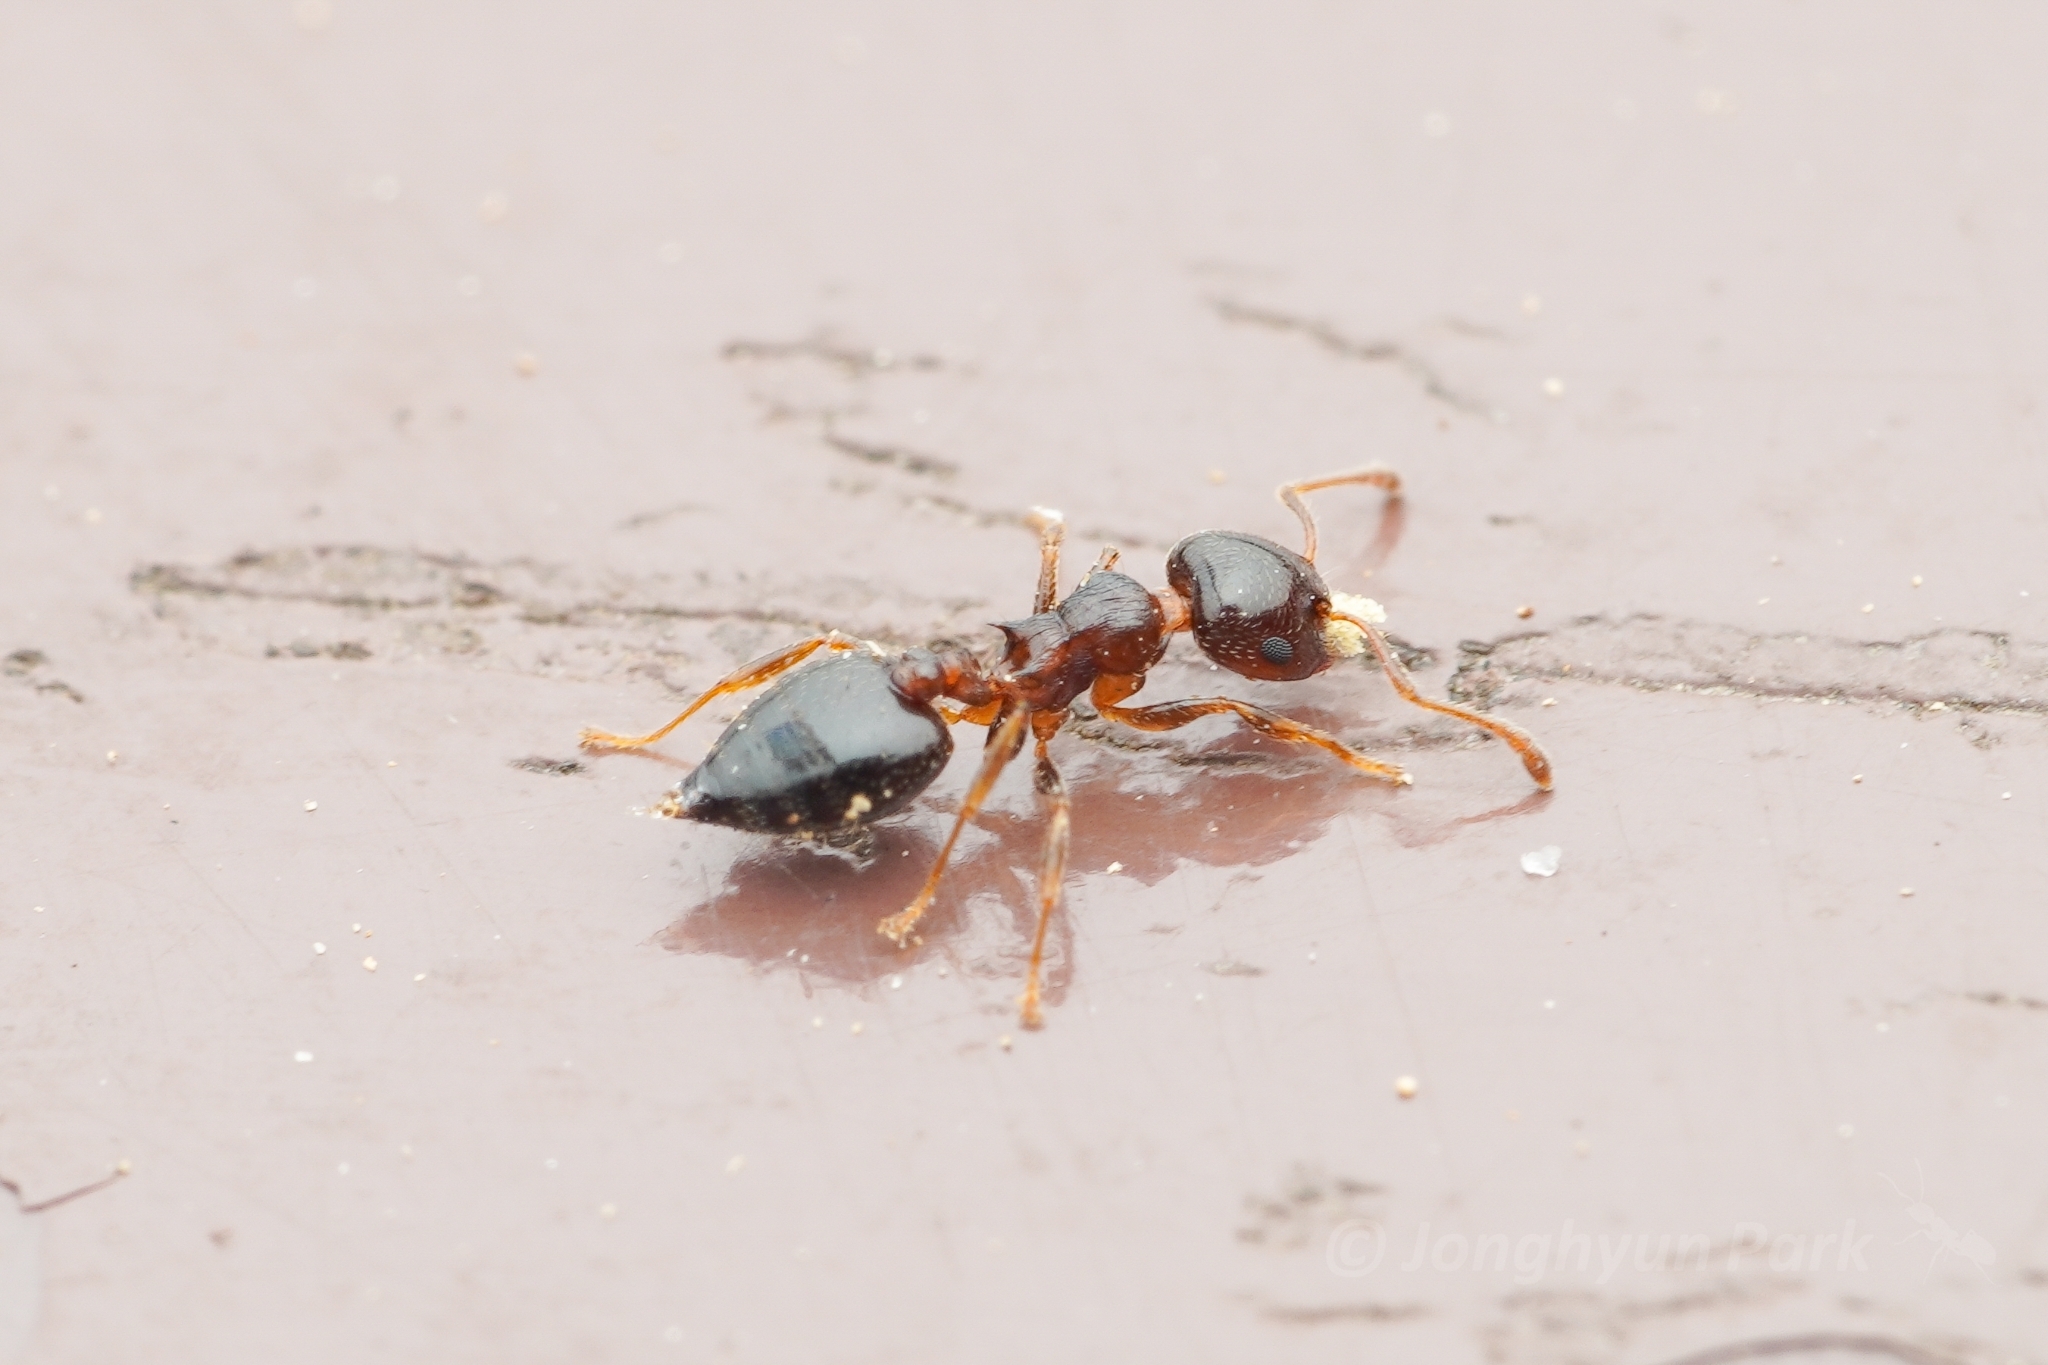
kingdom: Animalia
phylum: Arthropoda
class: Insecta
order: Hymenoptera
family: Formicidae
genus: Crematogaster
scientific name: Crematogaster teranishii
